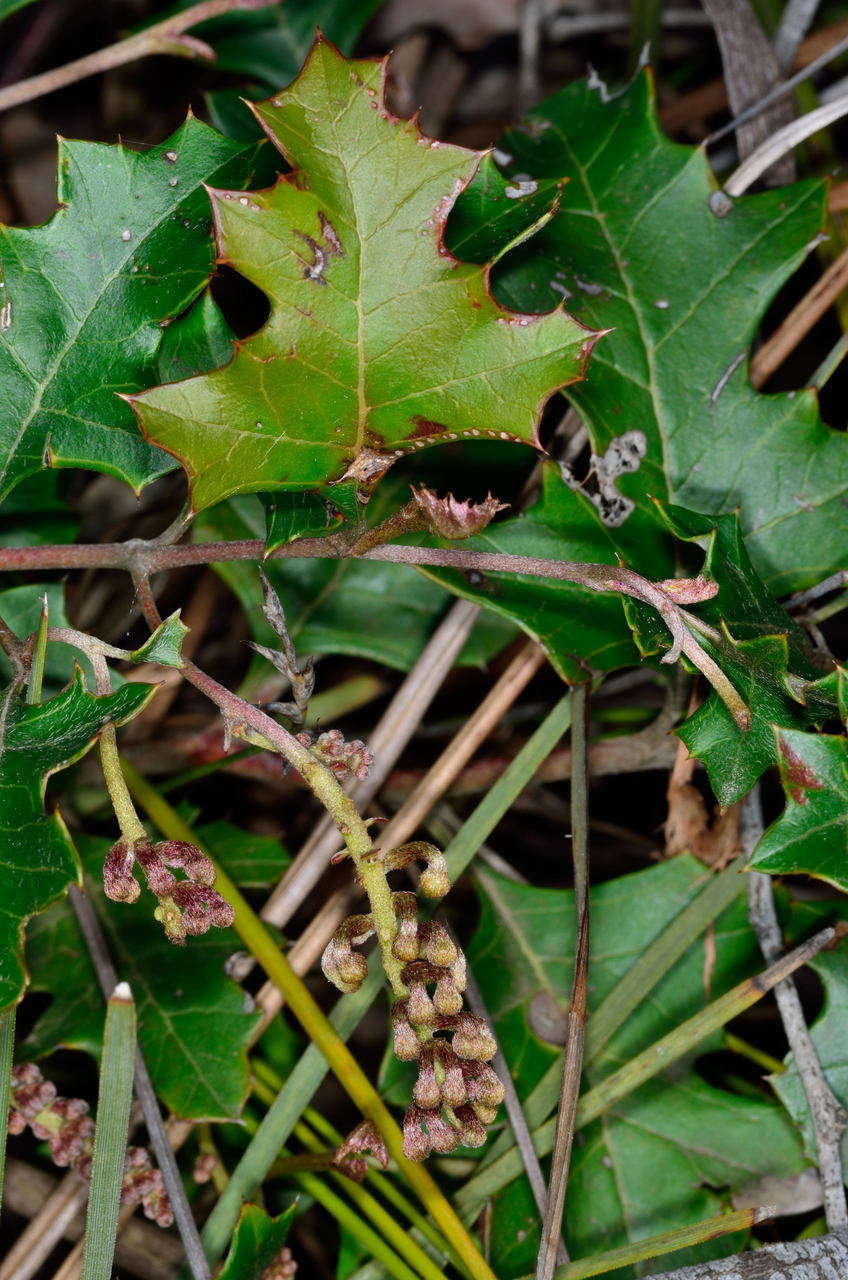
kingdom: Plantae
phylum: Tracheophyta
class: Magnoliopsida
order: Proteales
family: Proteaceae
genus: Grevillea
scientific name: Grevillea steiglitziana
